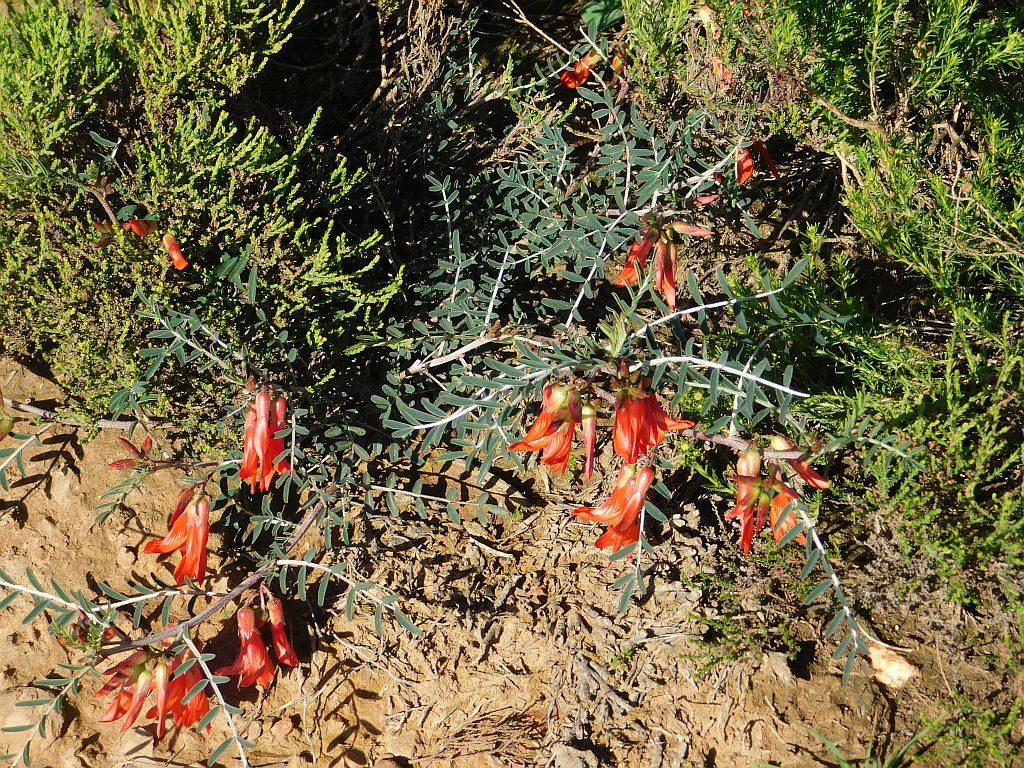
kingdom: Plantae
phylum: Tracheophyta
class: Magnoliopsida
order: Fabales
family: Fabaceae
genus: Lessertia
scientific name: Lessertia frutescens
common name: Balloon-pea
